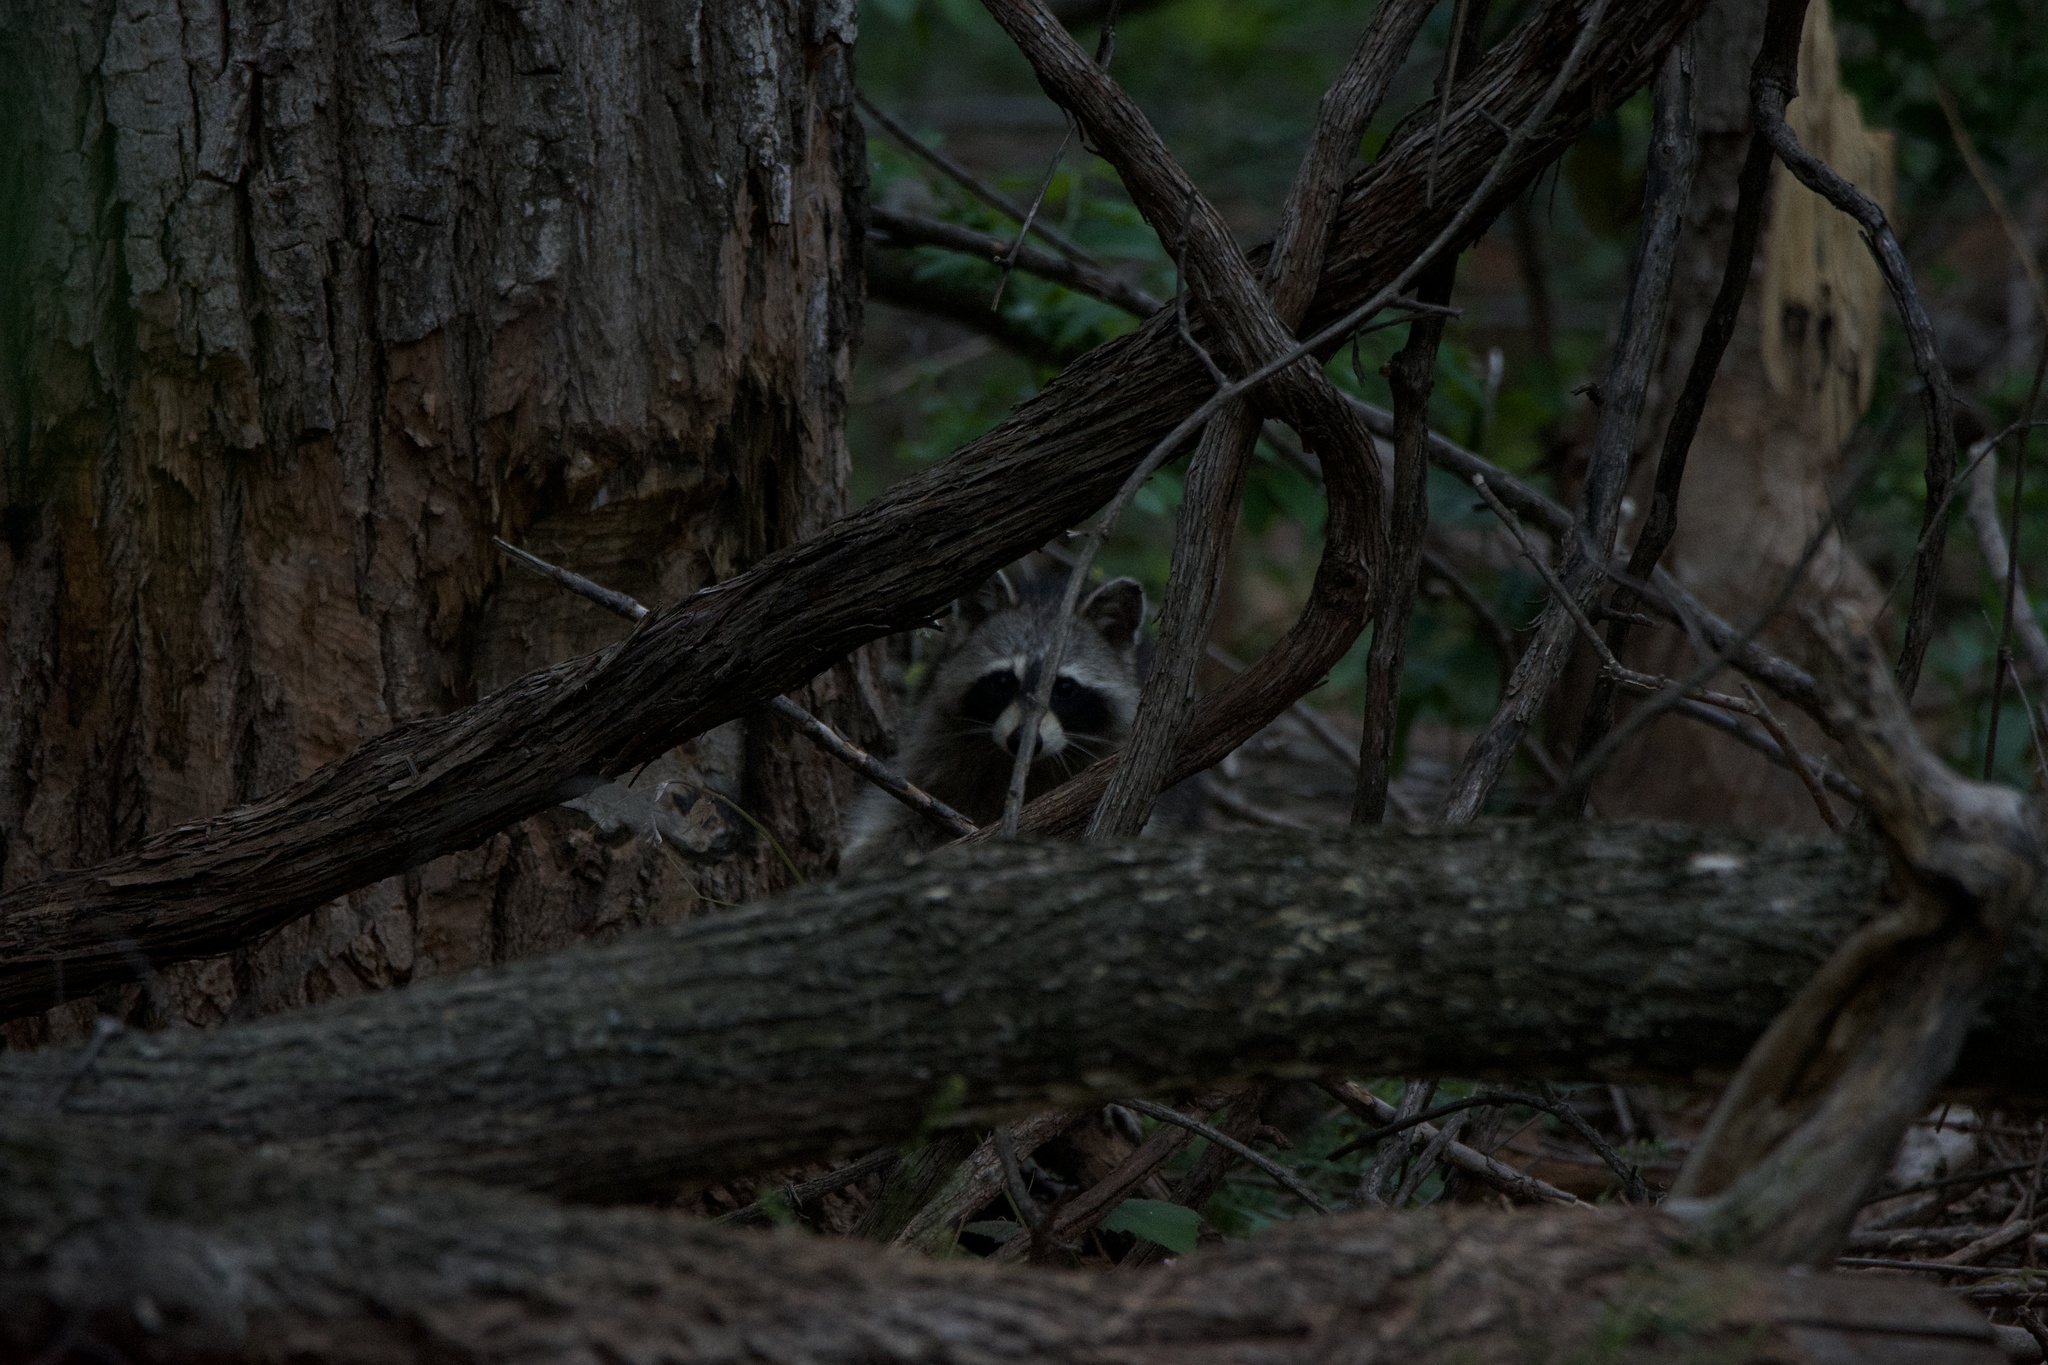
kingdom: Animalia
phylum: Chordata
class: Mammalia
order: Carnivora
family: Procyonidae
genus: Procyon
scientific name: Procyon lotor
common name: Raccoon
